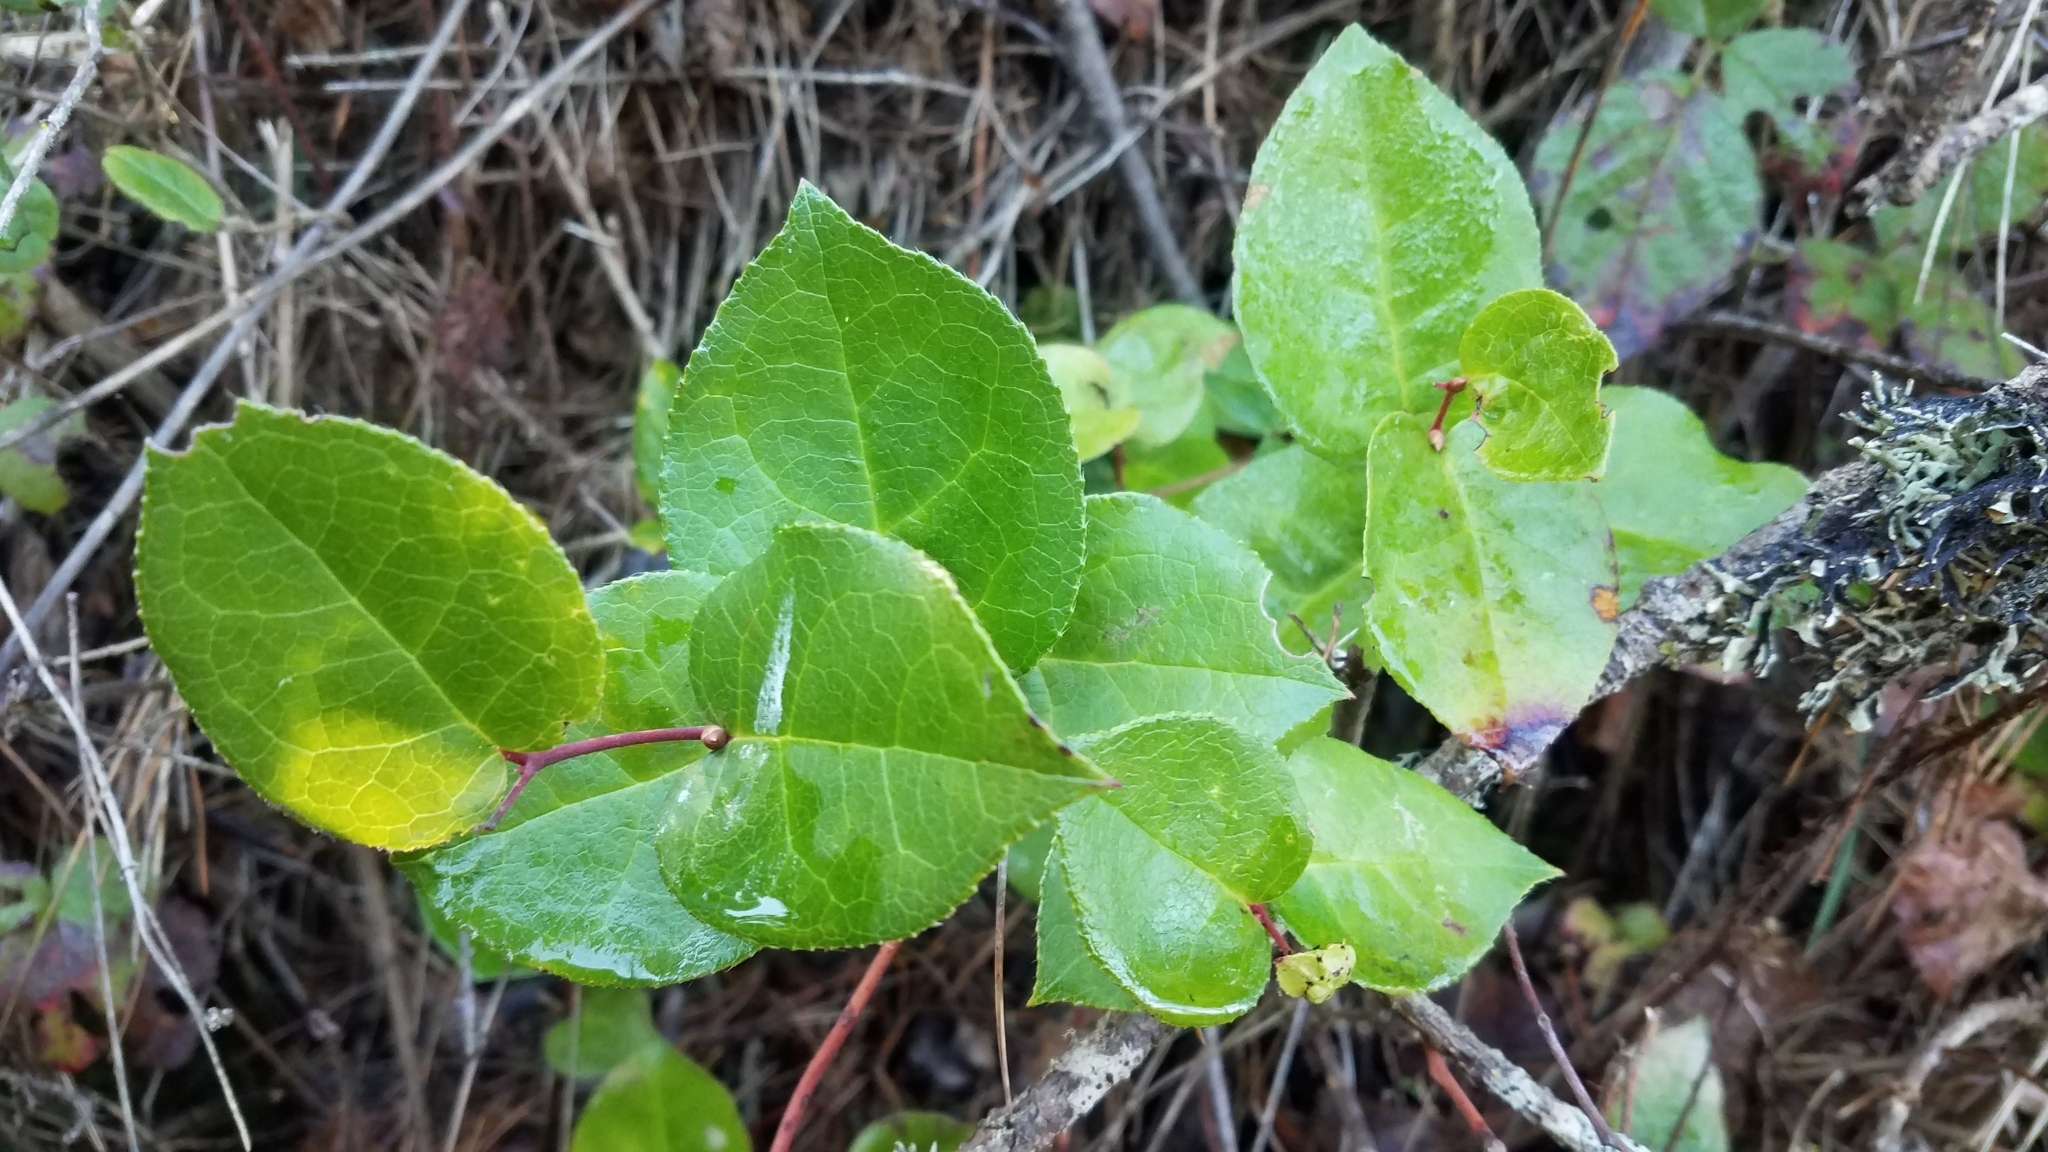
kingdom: Plantae
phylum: Tracheophyta
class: Magnoliopsida
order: Ericales
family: Ericaceae
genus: Gaultheria
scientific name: Gaultheria shallon
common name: Shallon
